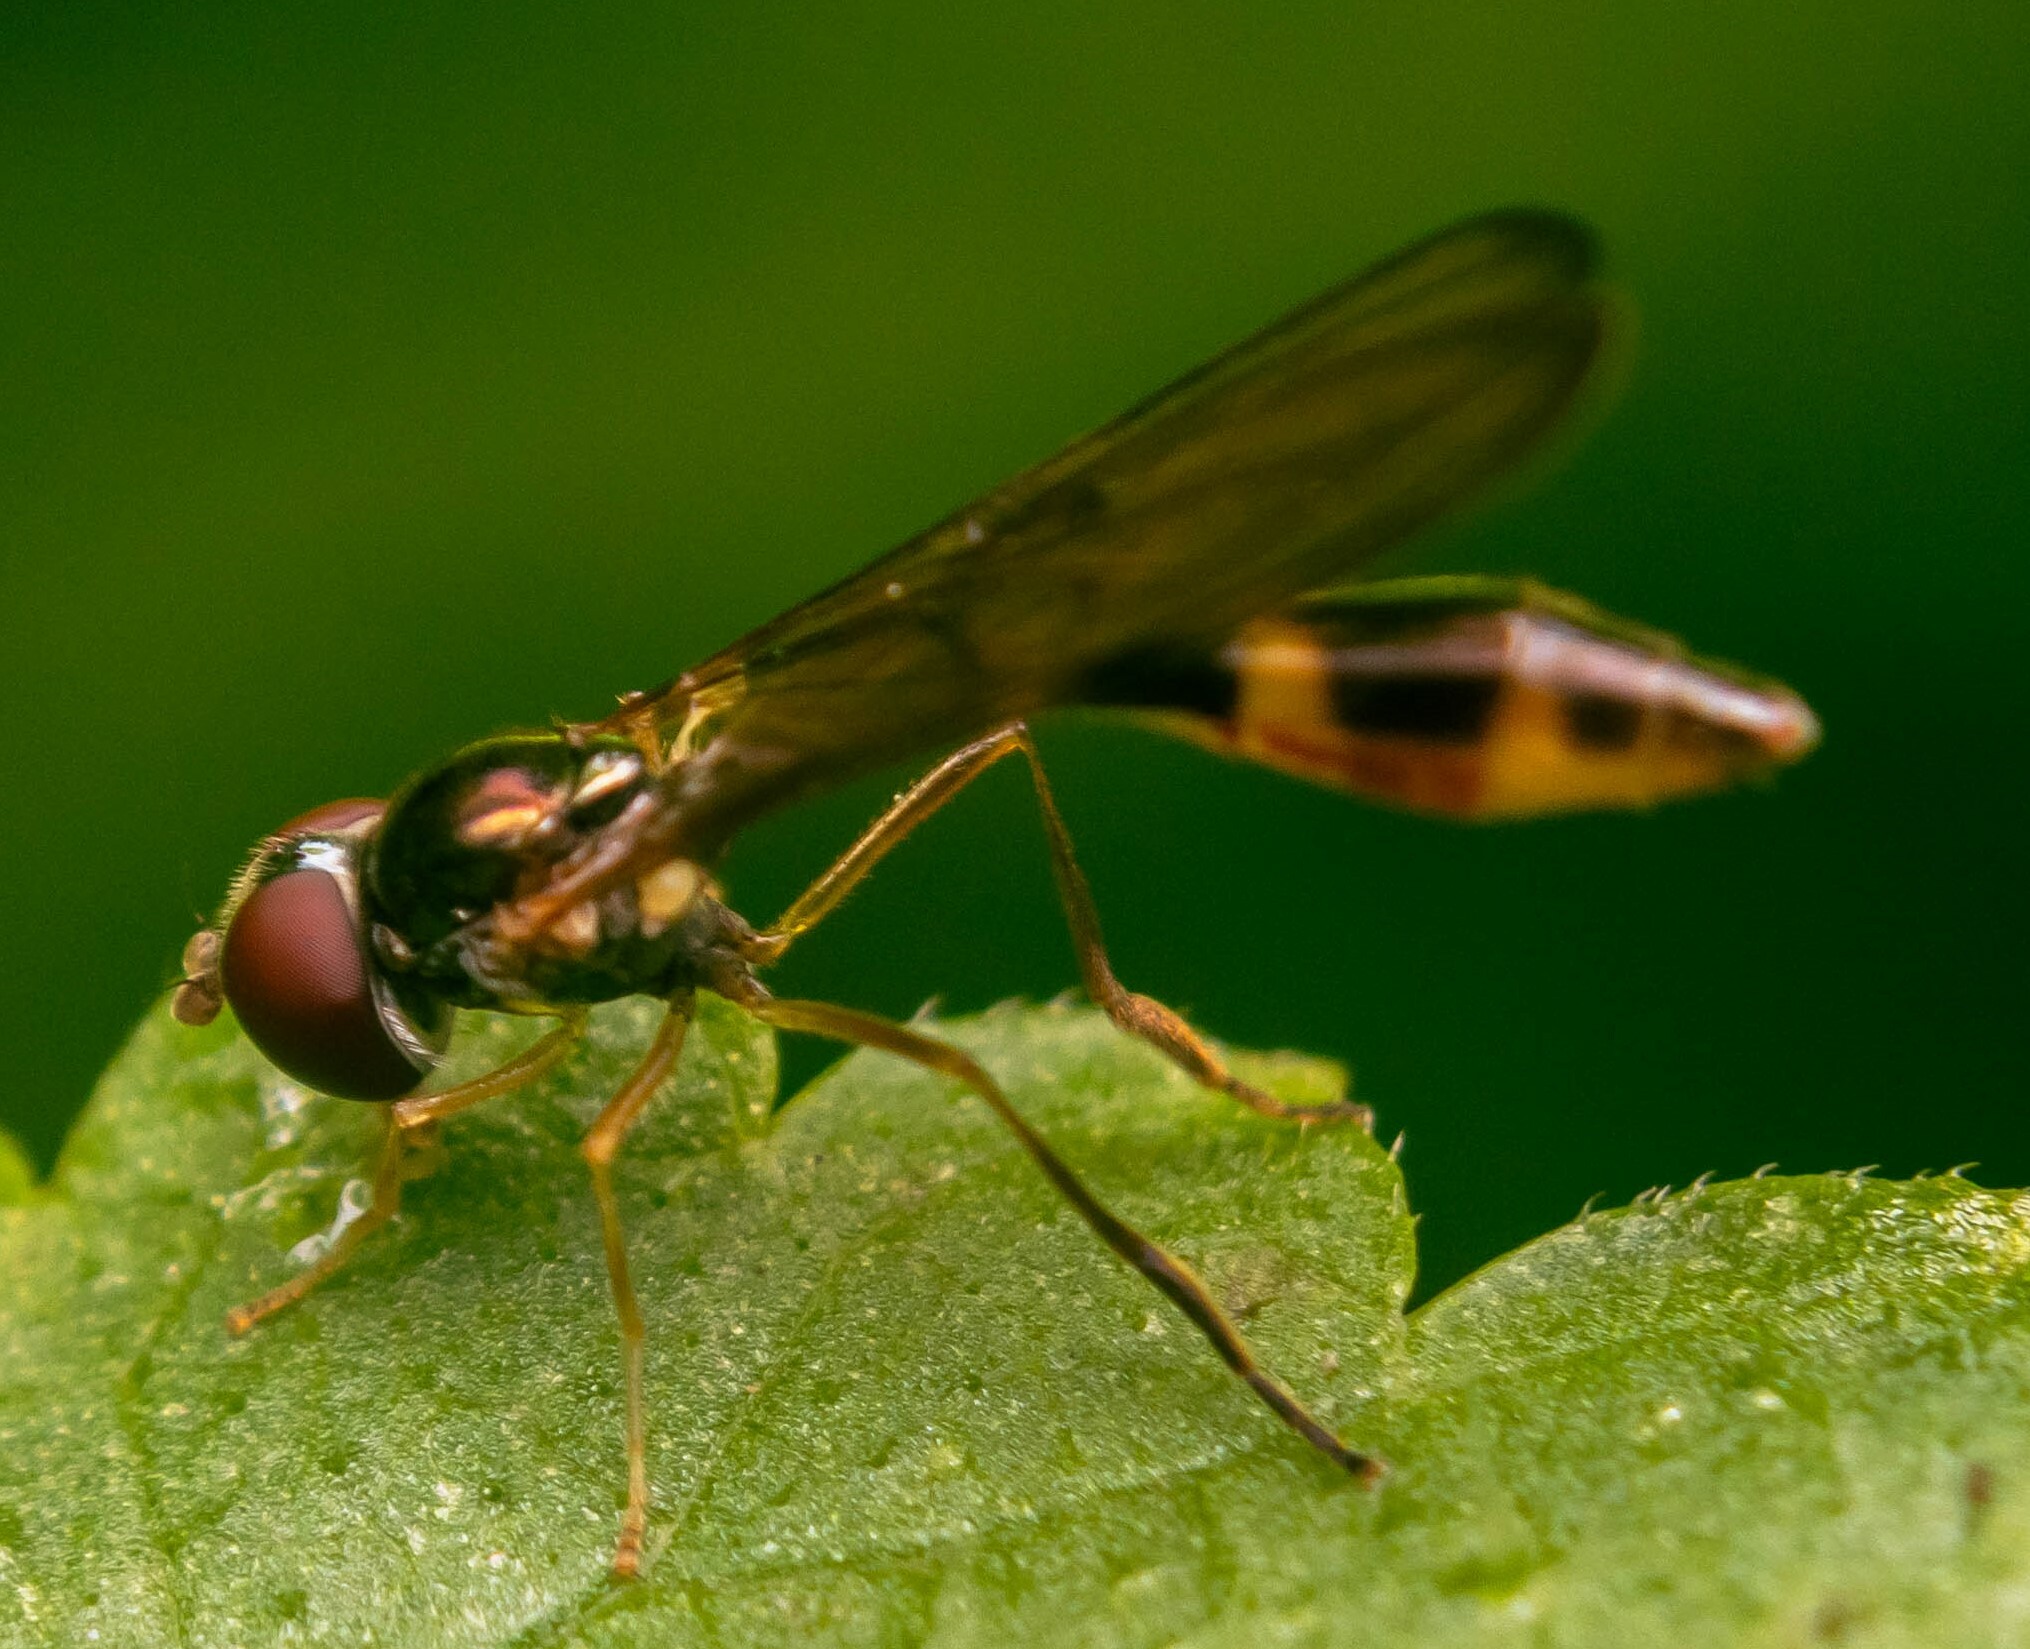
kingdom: Animalia
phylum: Arthropoda
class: Insecta
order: Diptera
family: Syrphidae
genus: Baccha
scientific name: Baccha elongata
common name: Common dainty
